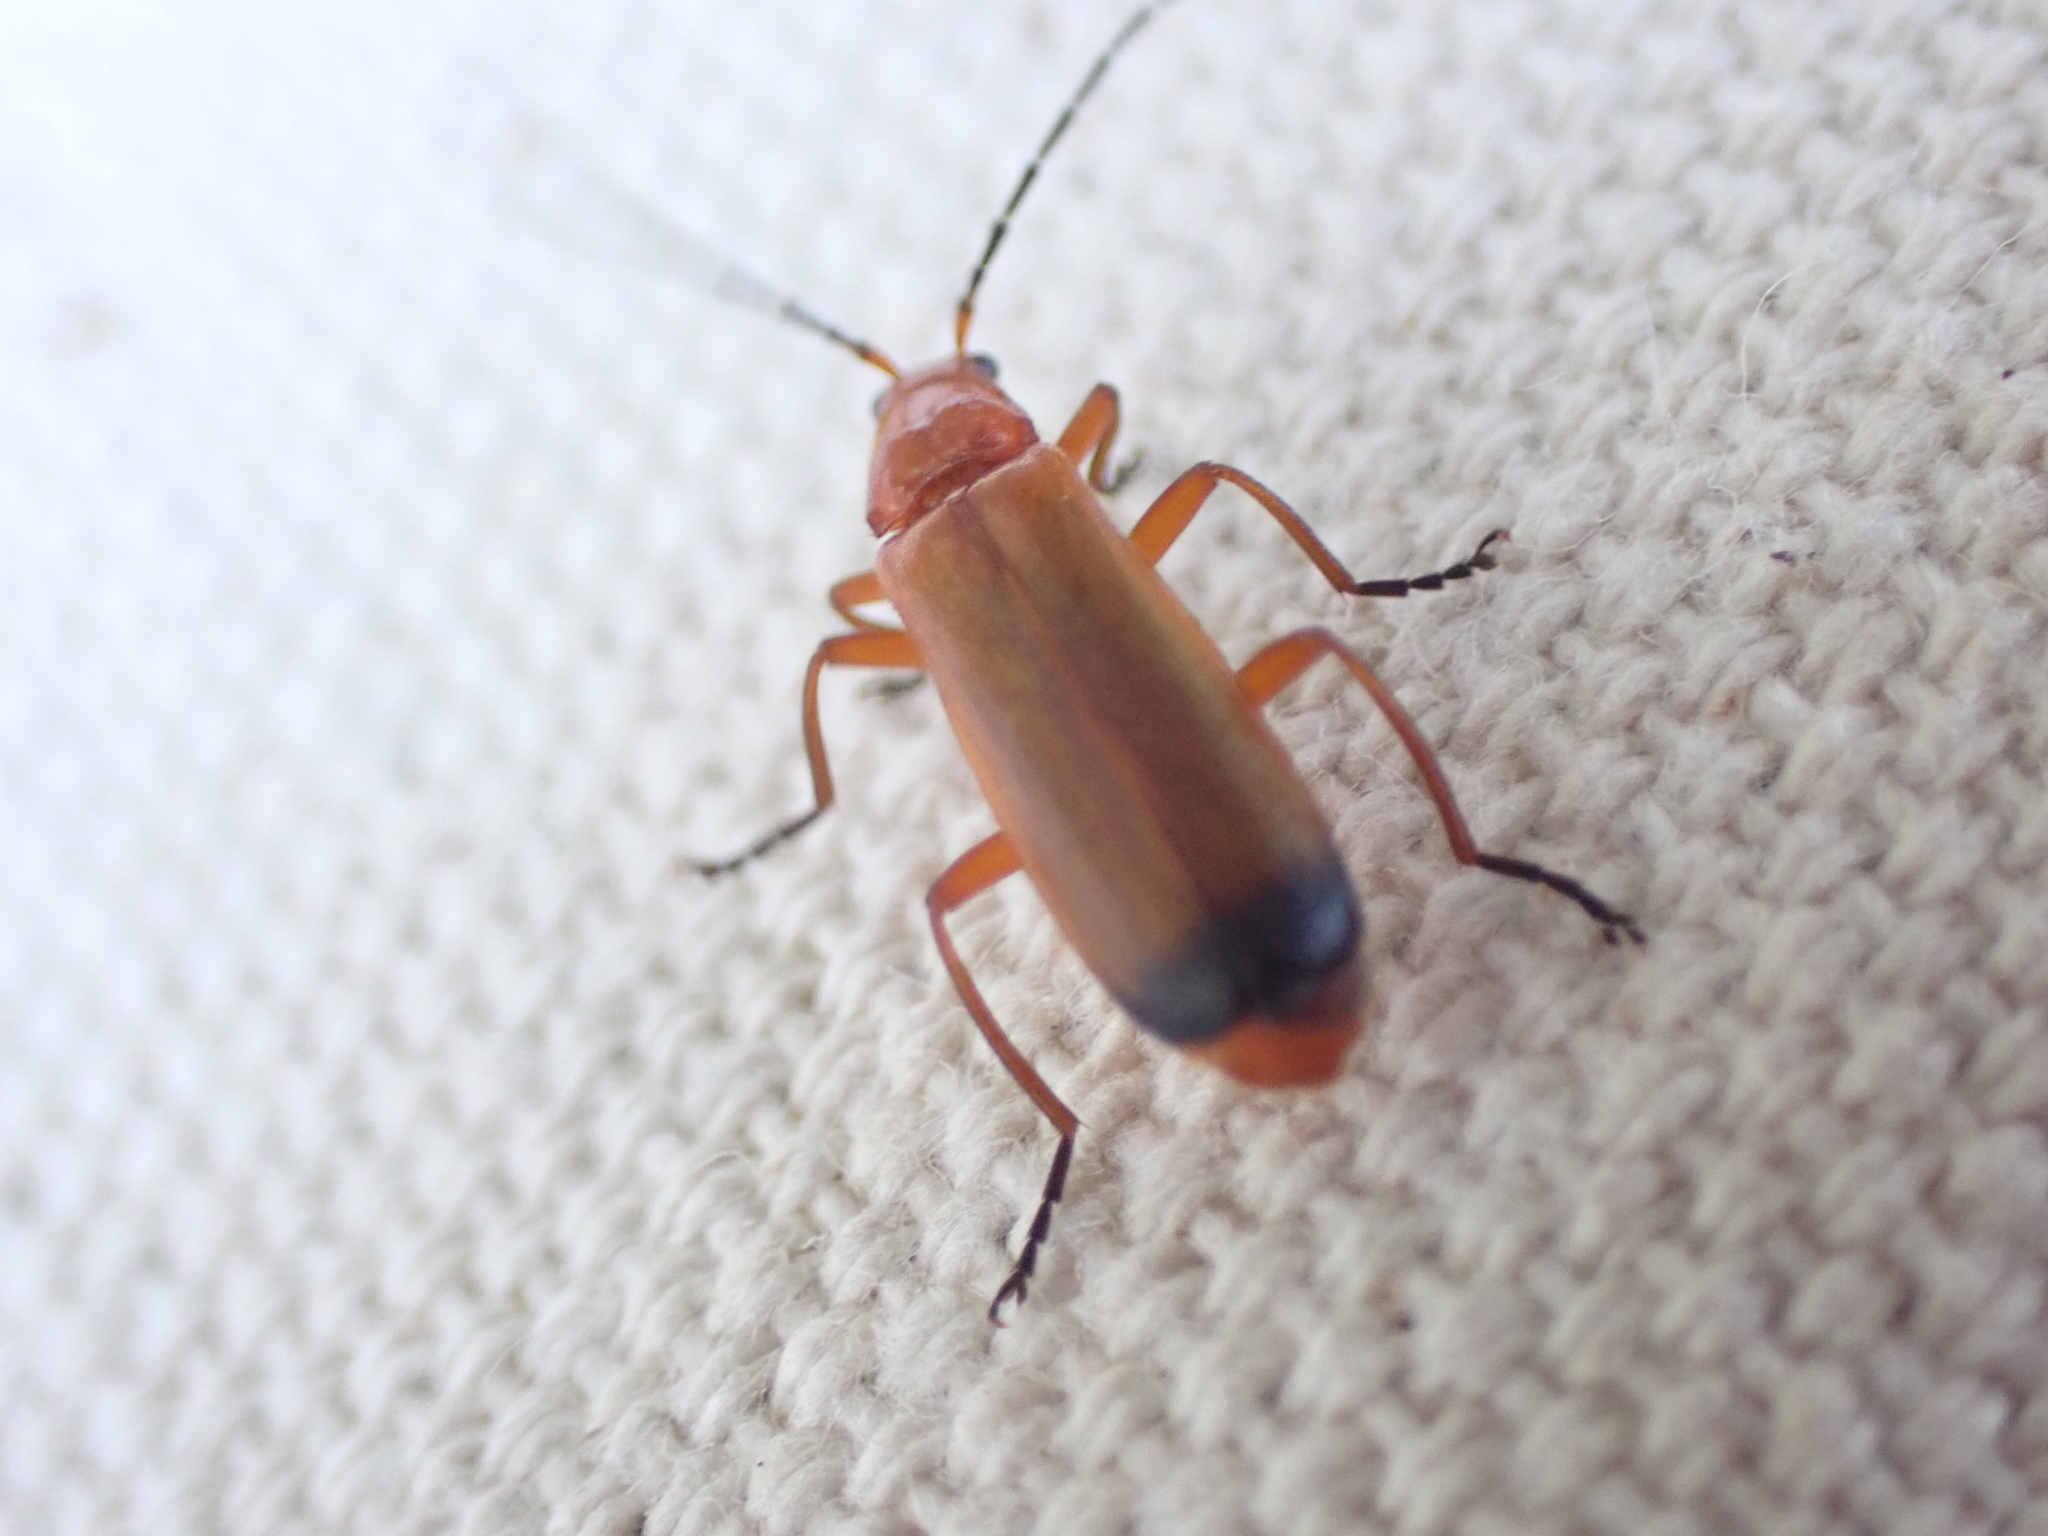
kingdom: Animalia
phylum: Arthropoda
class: Insecta
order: Coleoptera
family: Cantharidae
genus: Rhagonycha
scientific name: Rhagonycha fulva
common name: Common red soldier beetle
